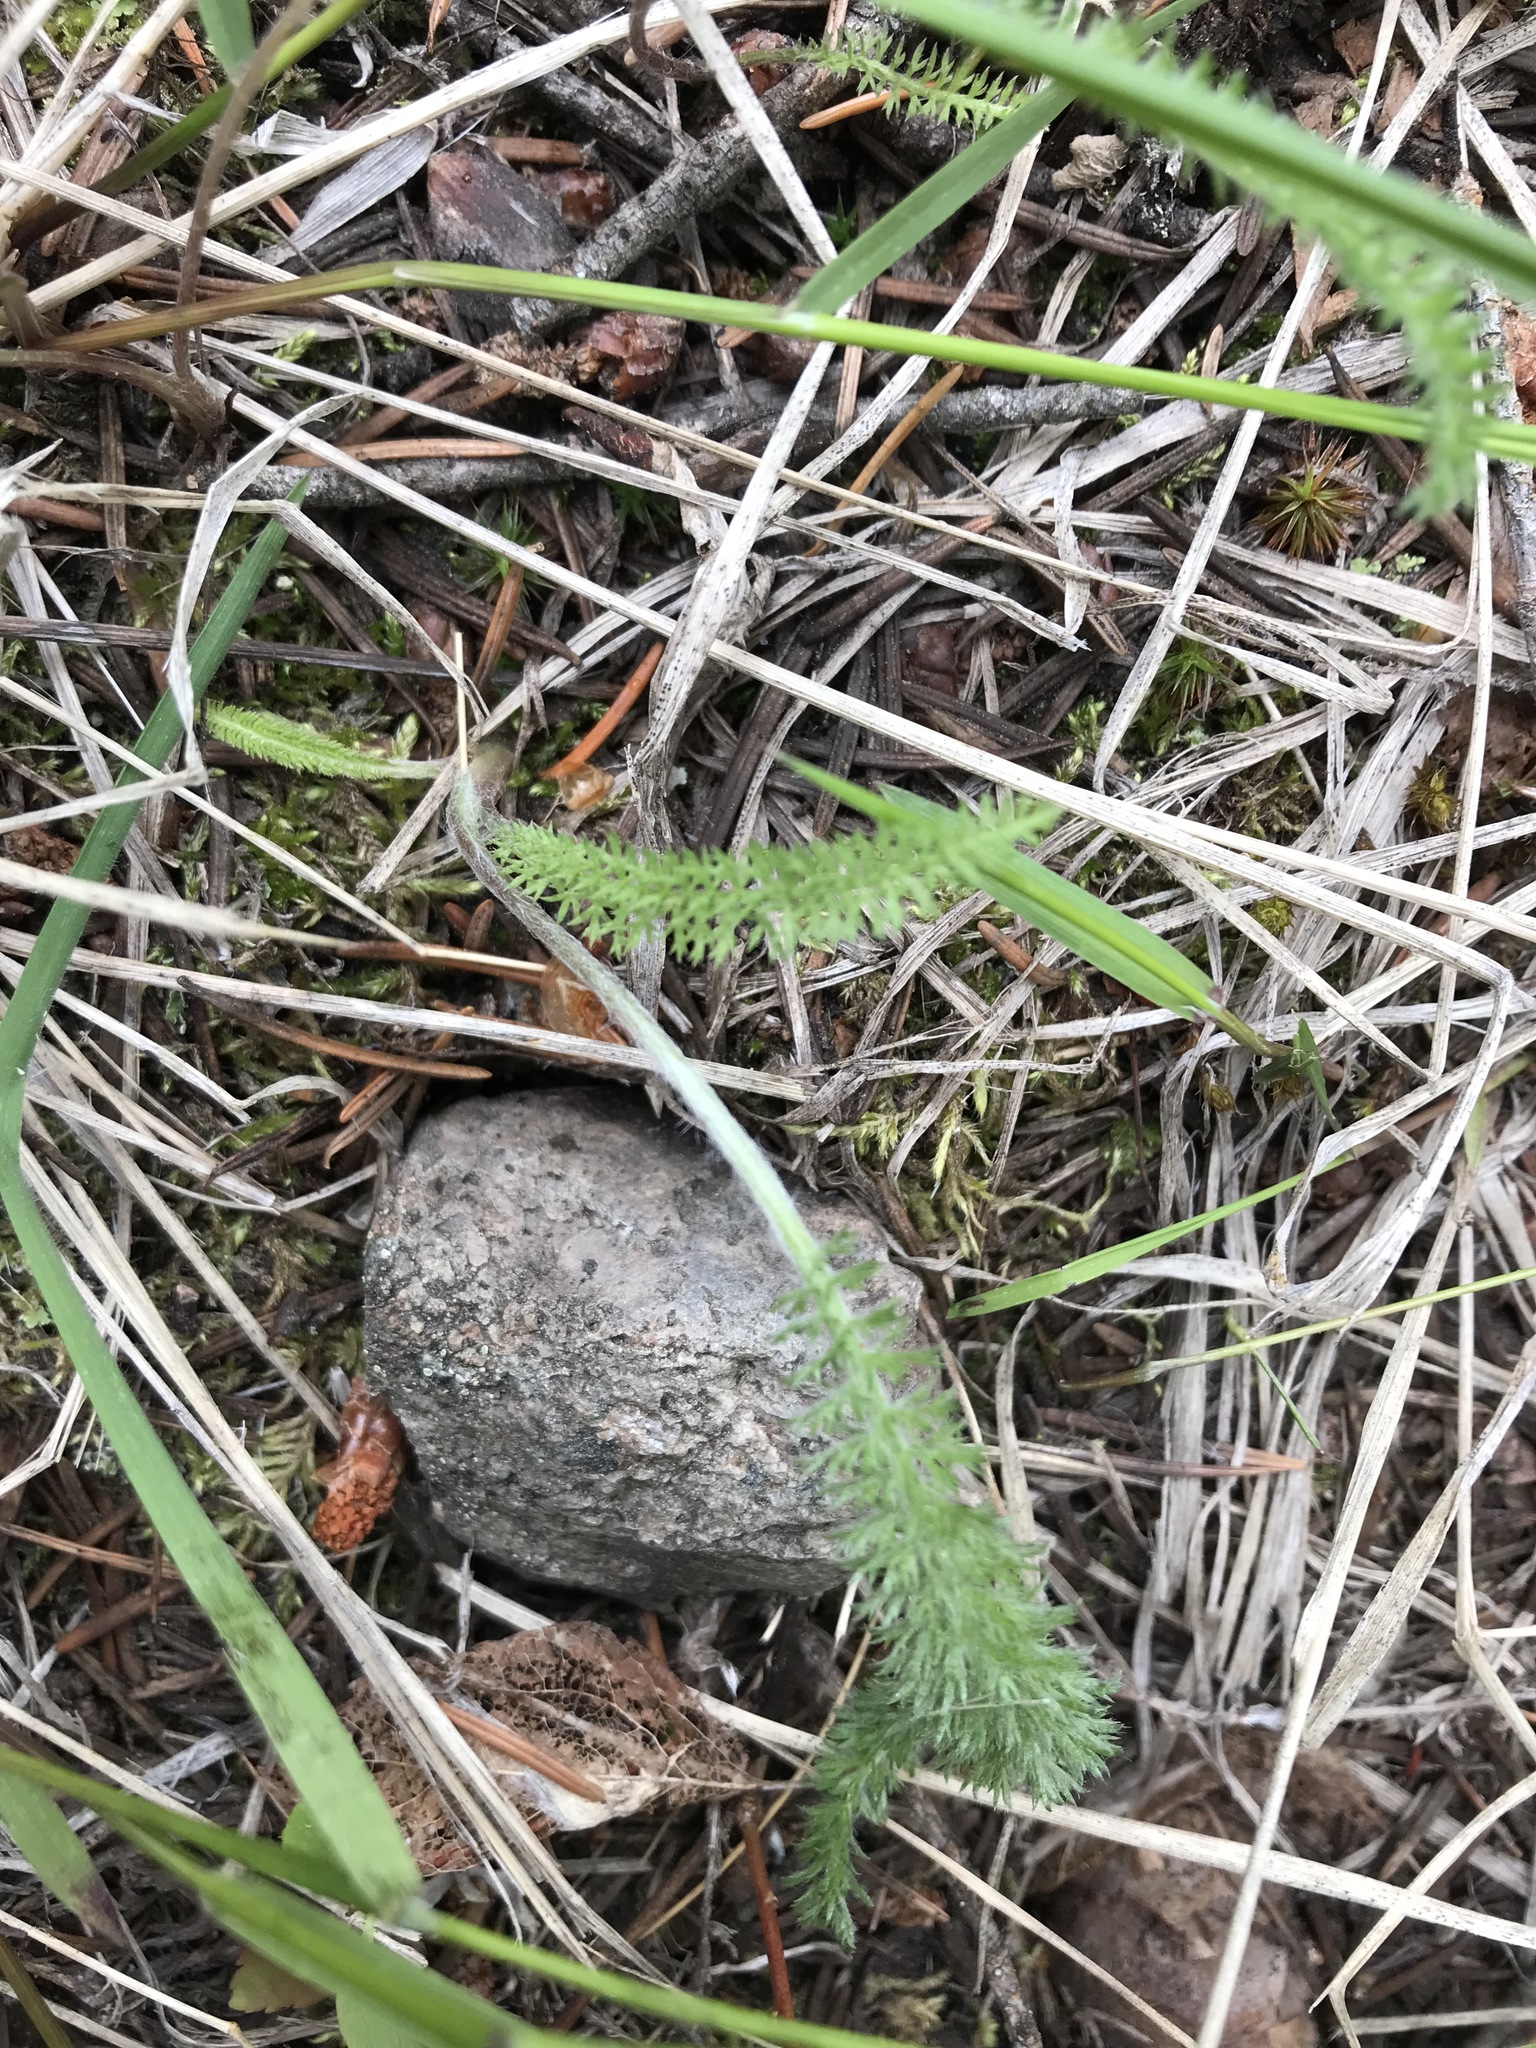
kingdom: Plantae
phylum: Tracheophyta
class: Magnoliopsida
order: Asterales
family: Asteraceae
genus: Achillea
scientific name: Achillea millefolium
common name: Yarrow
